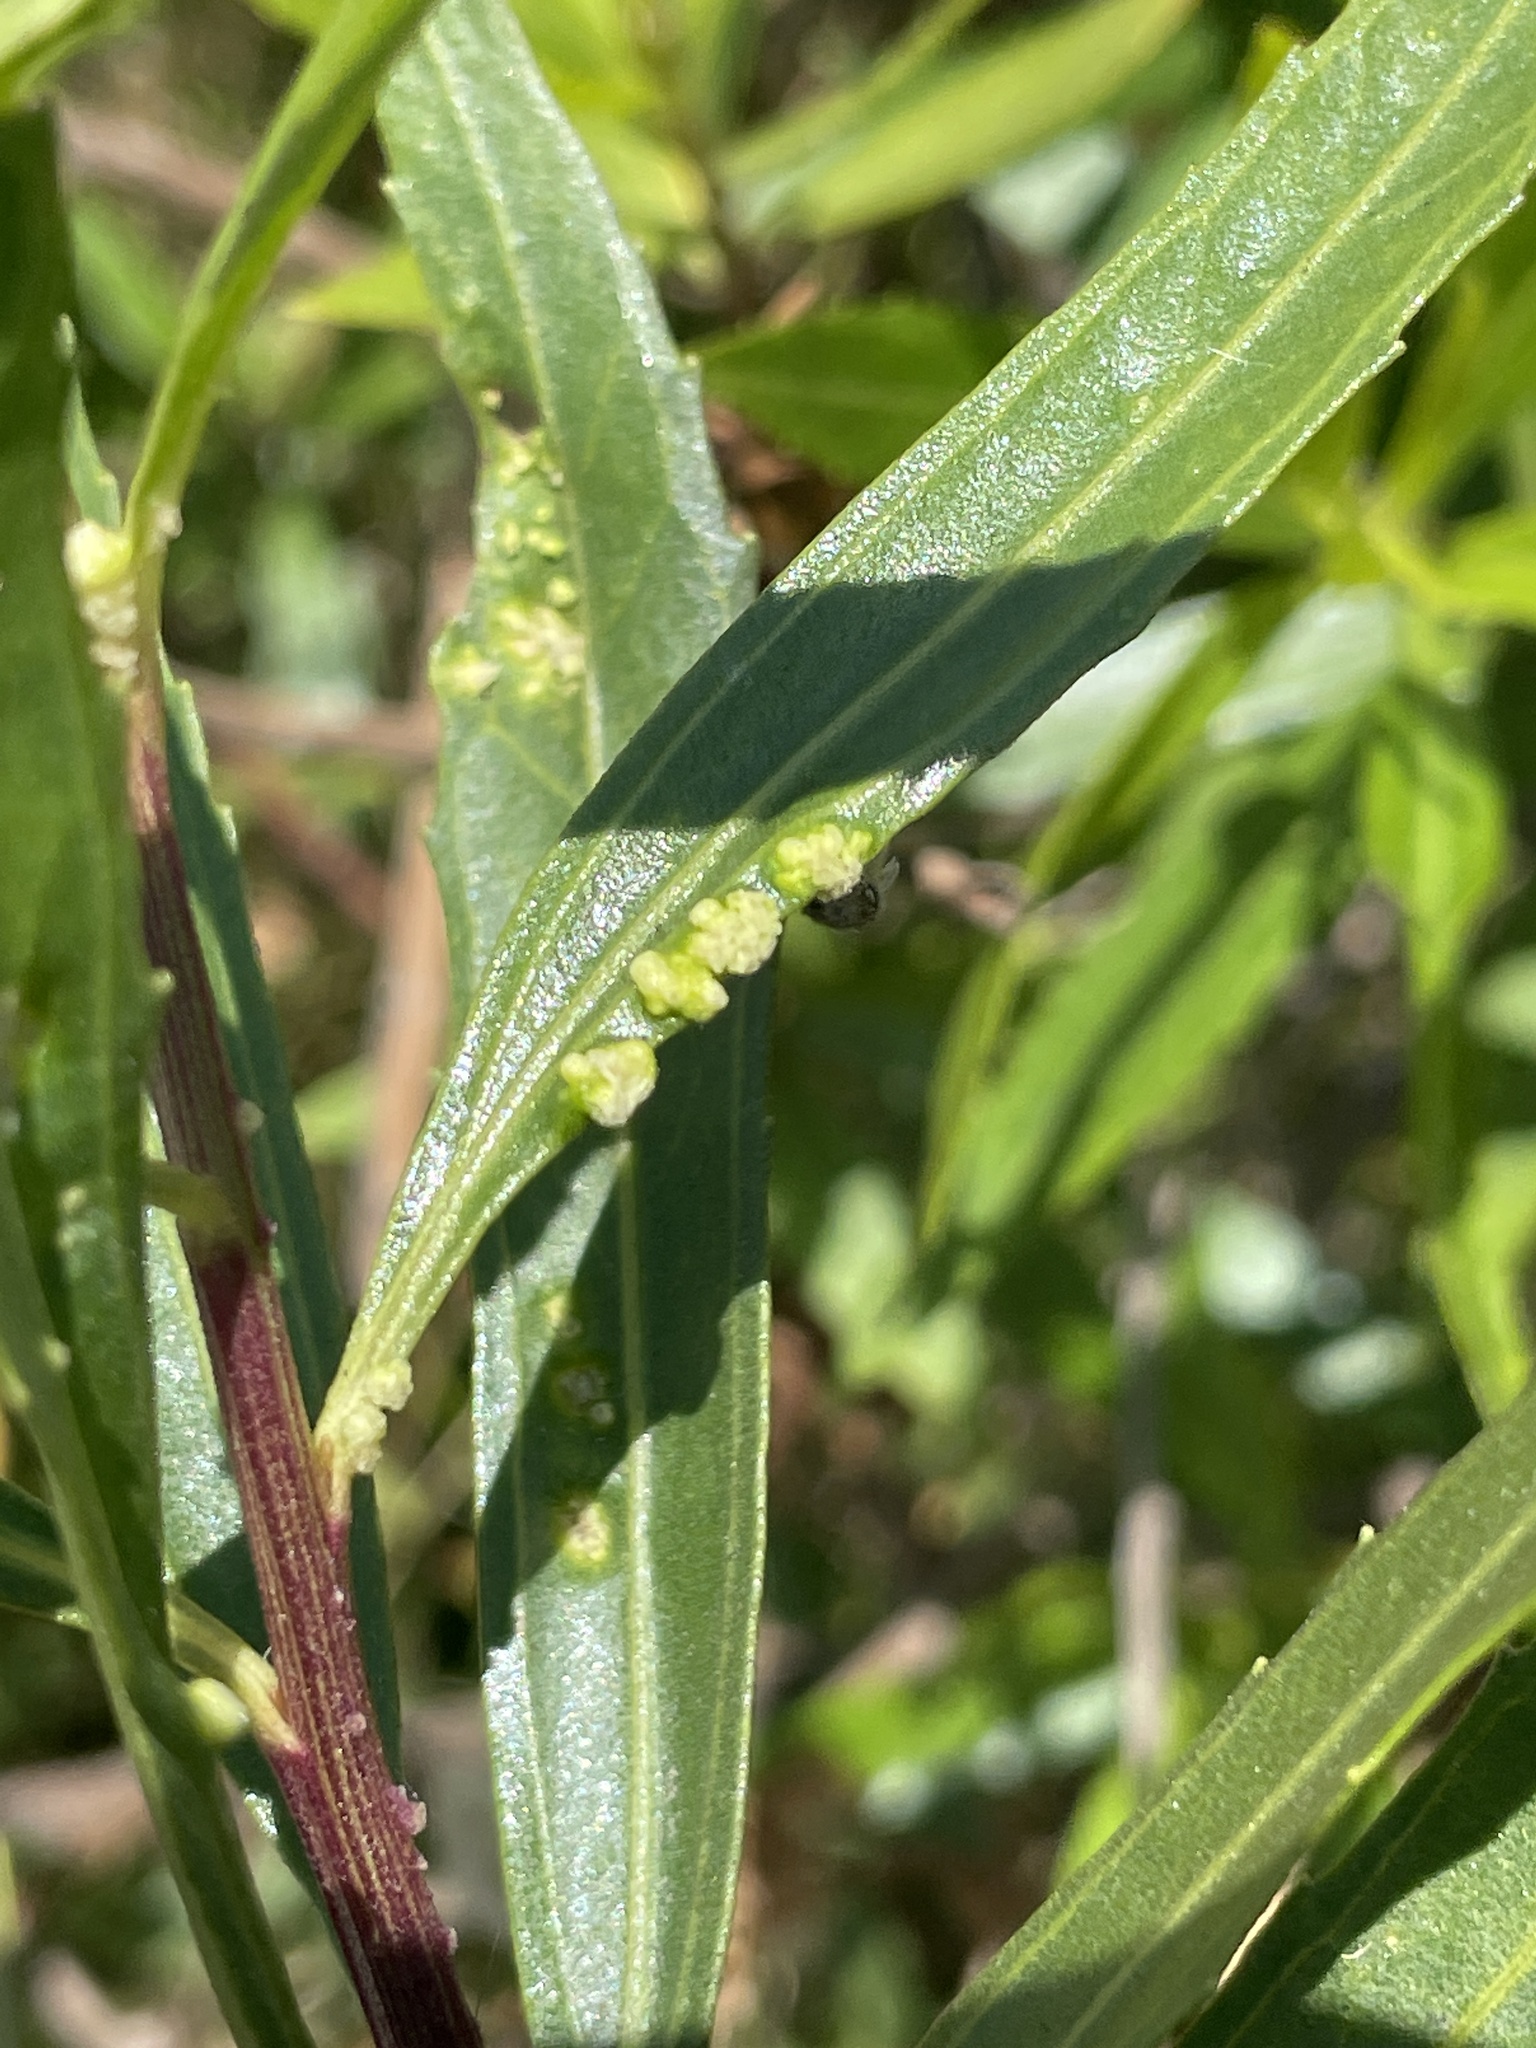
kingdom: Animalia
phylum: Arthropoda
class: Arachnida
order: Trombidiformes
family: Eriophyidae
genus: Aceria
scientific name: Aceria
